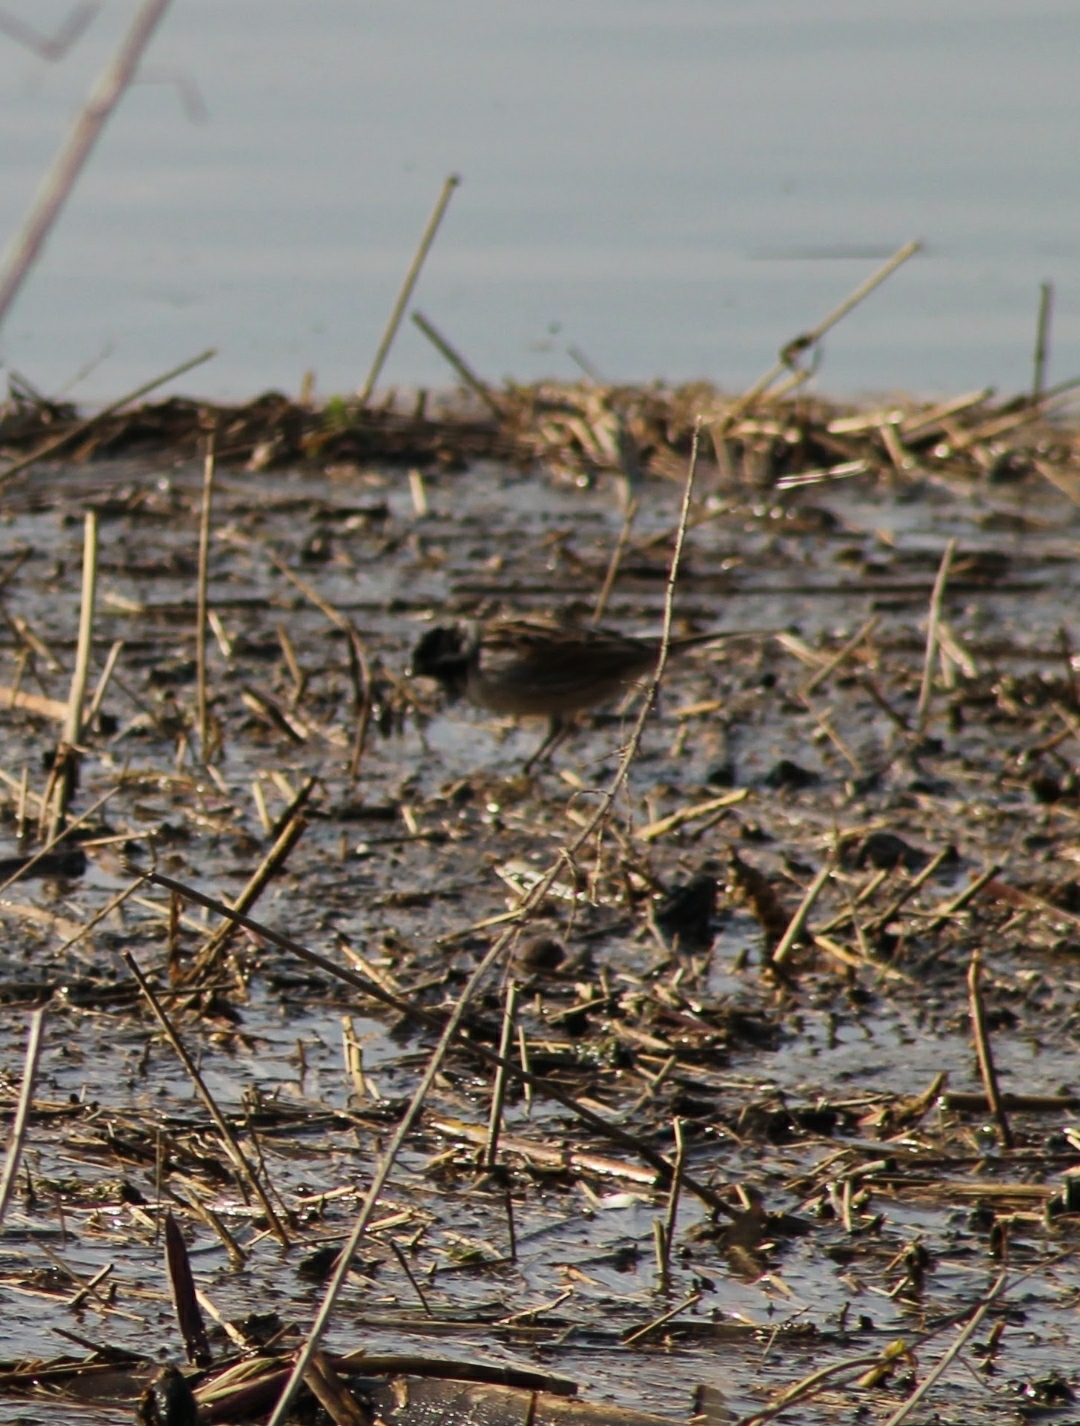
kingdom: Animalia
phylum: Chordata
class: Aves
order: Passeriformes
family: Emberizidae
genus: Emberiza
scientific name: Emberiza schoeniclus
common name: Reed bunting
